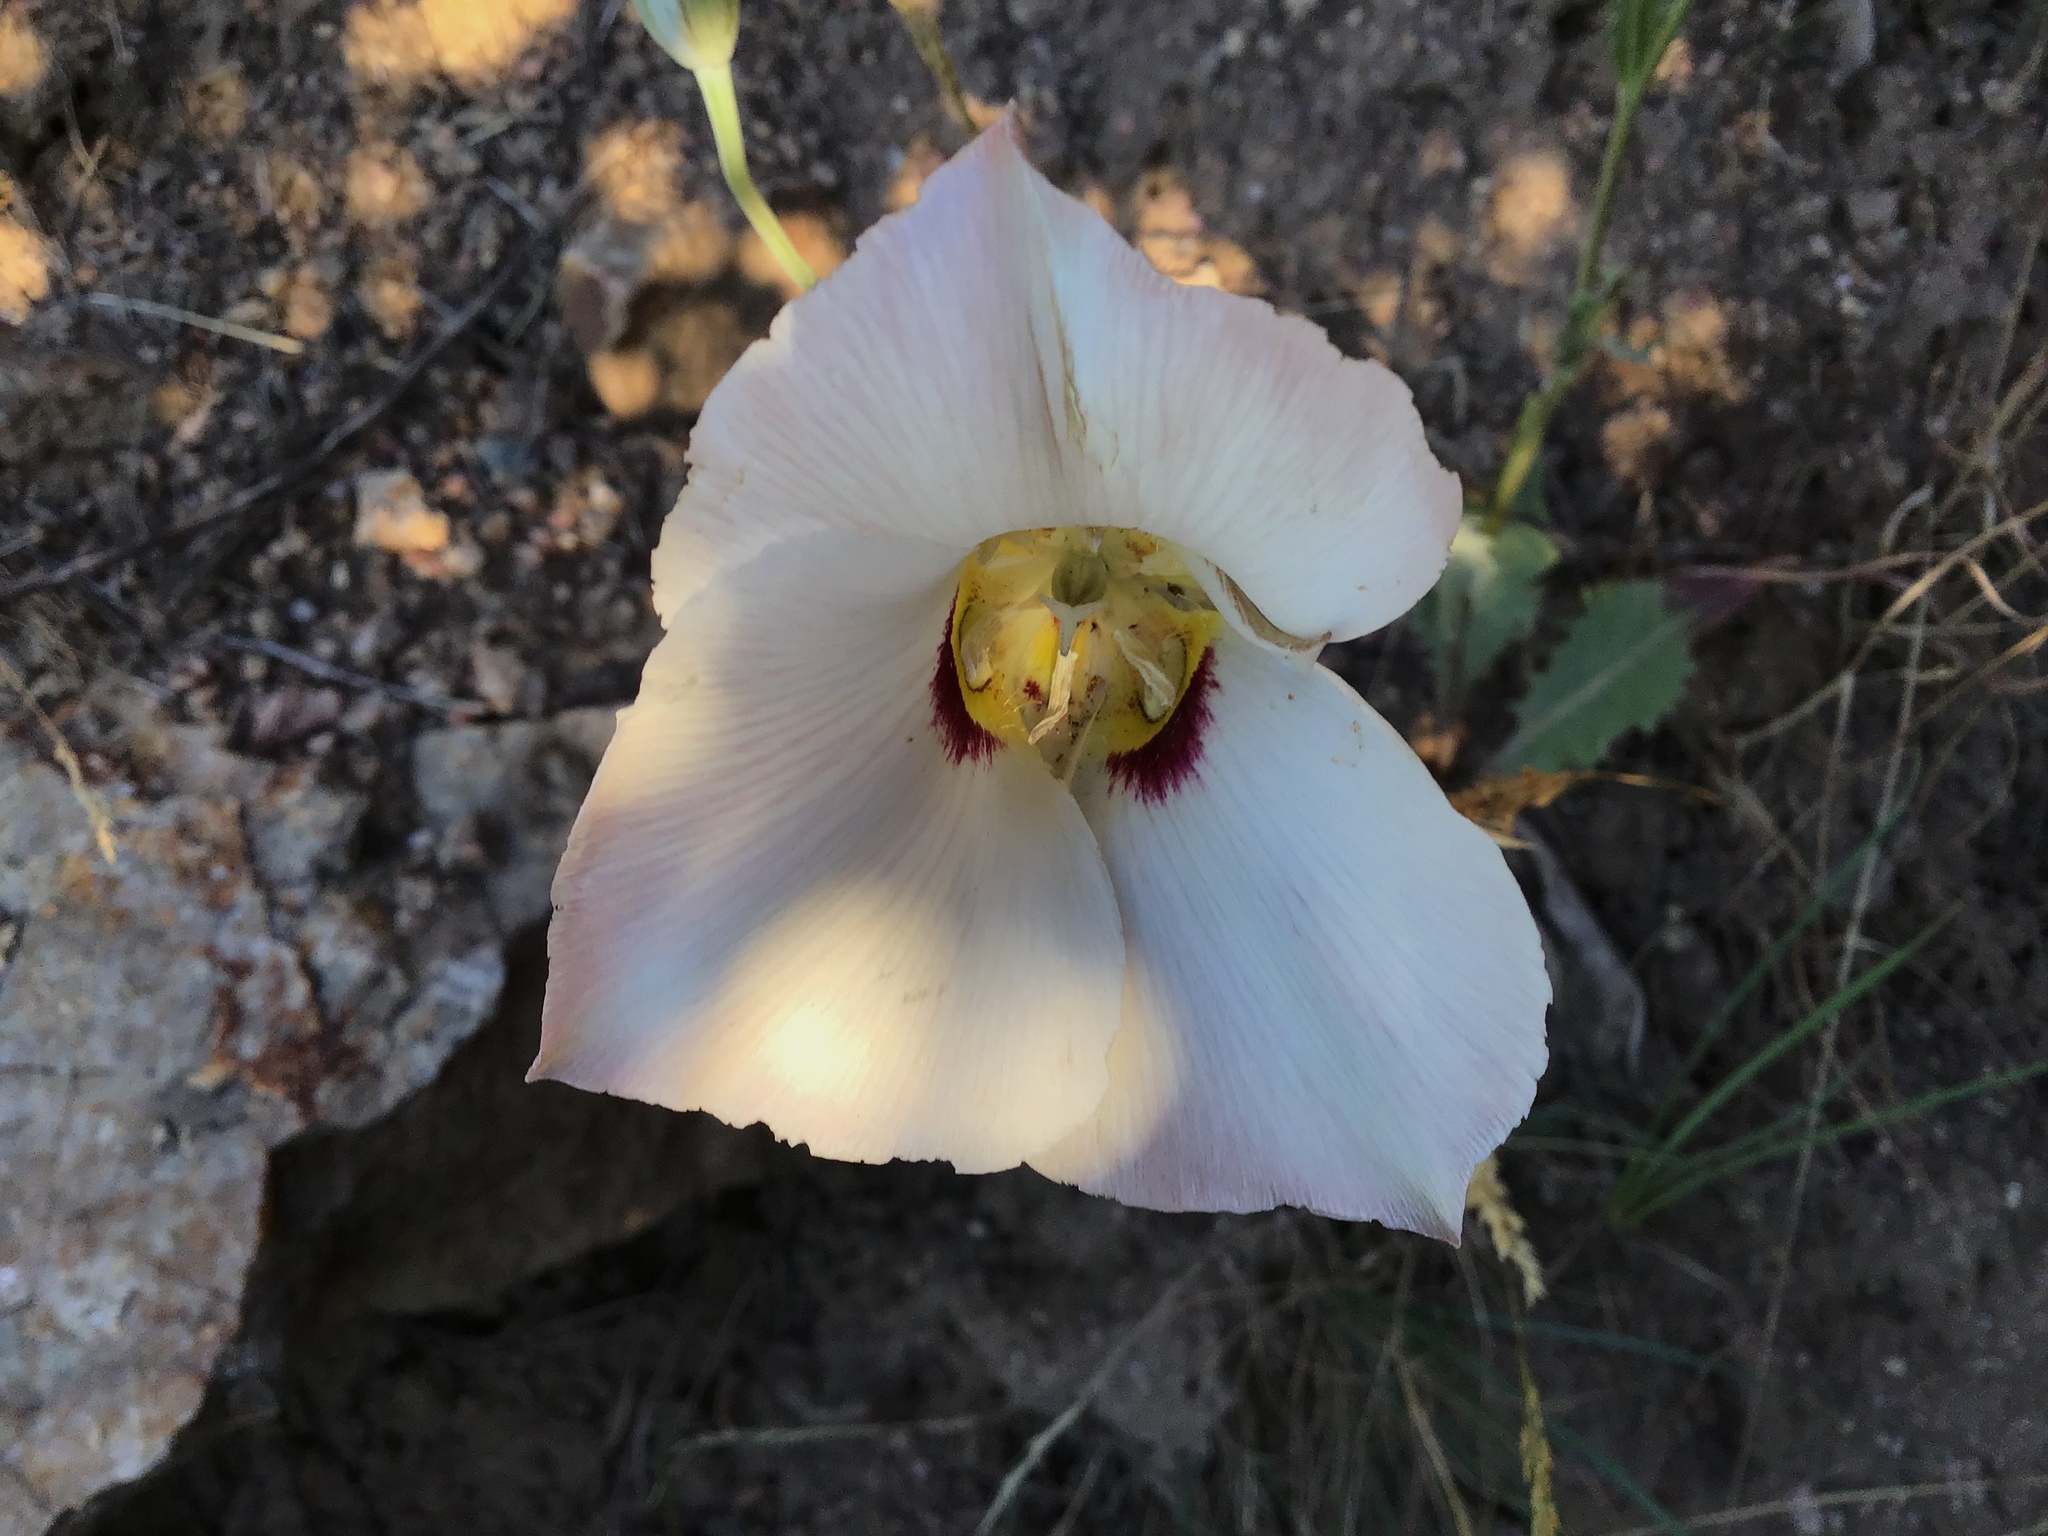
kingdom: Plantae
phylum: Tracheophyta
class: Liliopsida
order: Liliales
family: Liliaceae
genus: Calochortus
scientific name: Calochortus nuttallii
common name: Sego-lily
